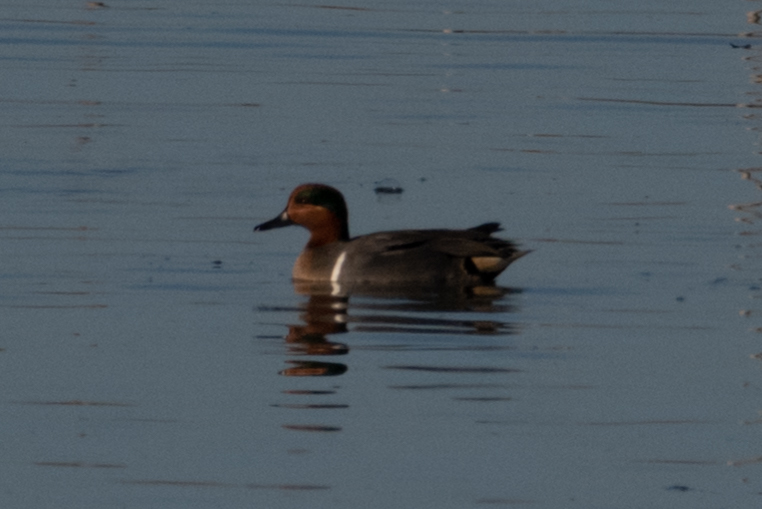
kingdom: Animalia
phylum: Chordata
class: Aves
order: Anseriformes
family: Anatidae
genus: Anas
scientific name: Anas crecca
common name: Eurasian teal
